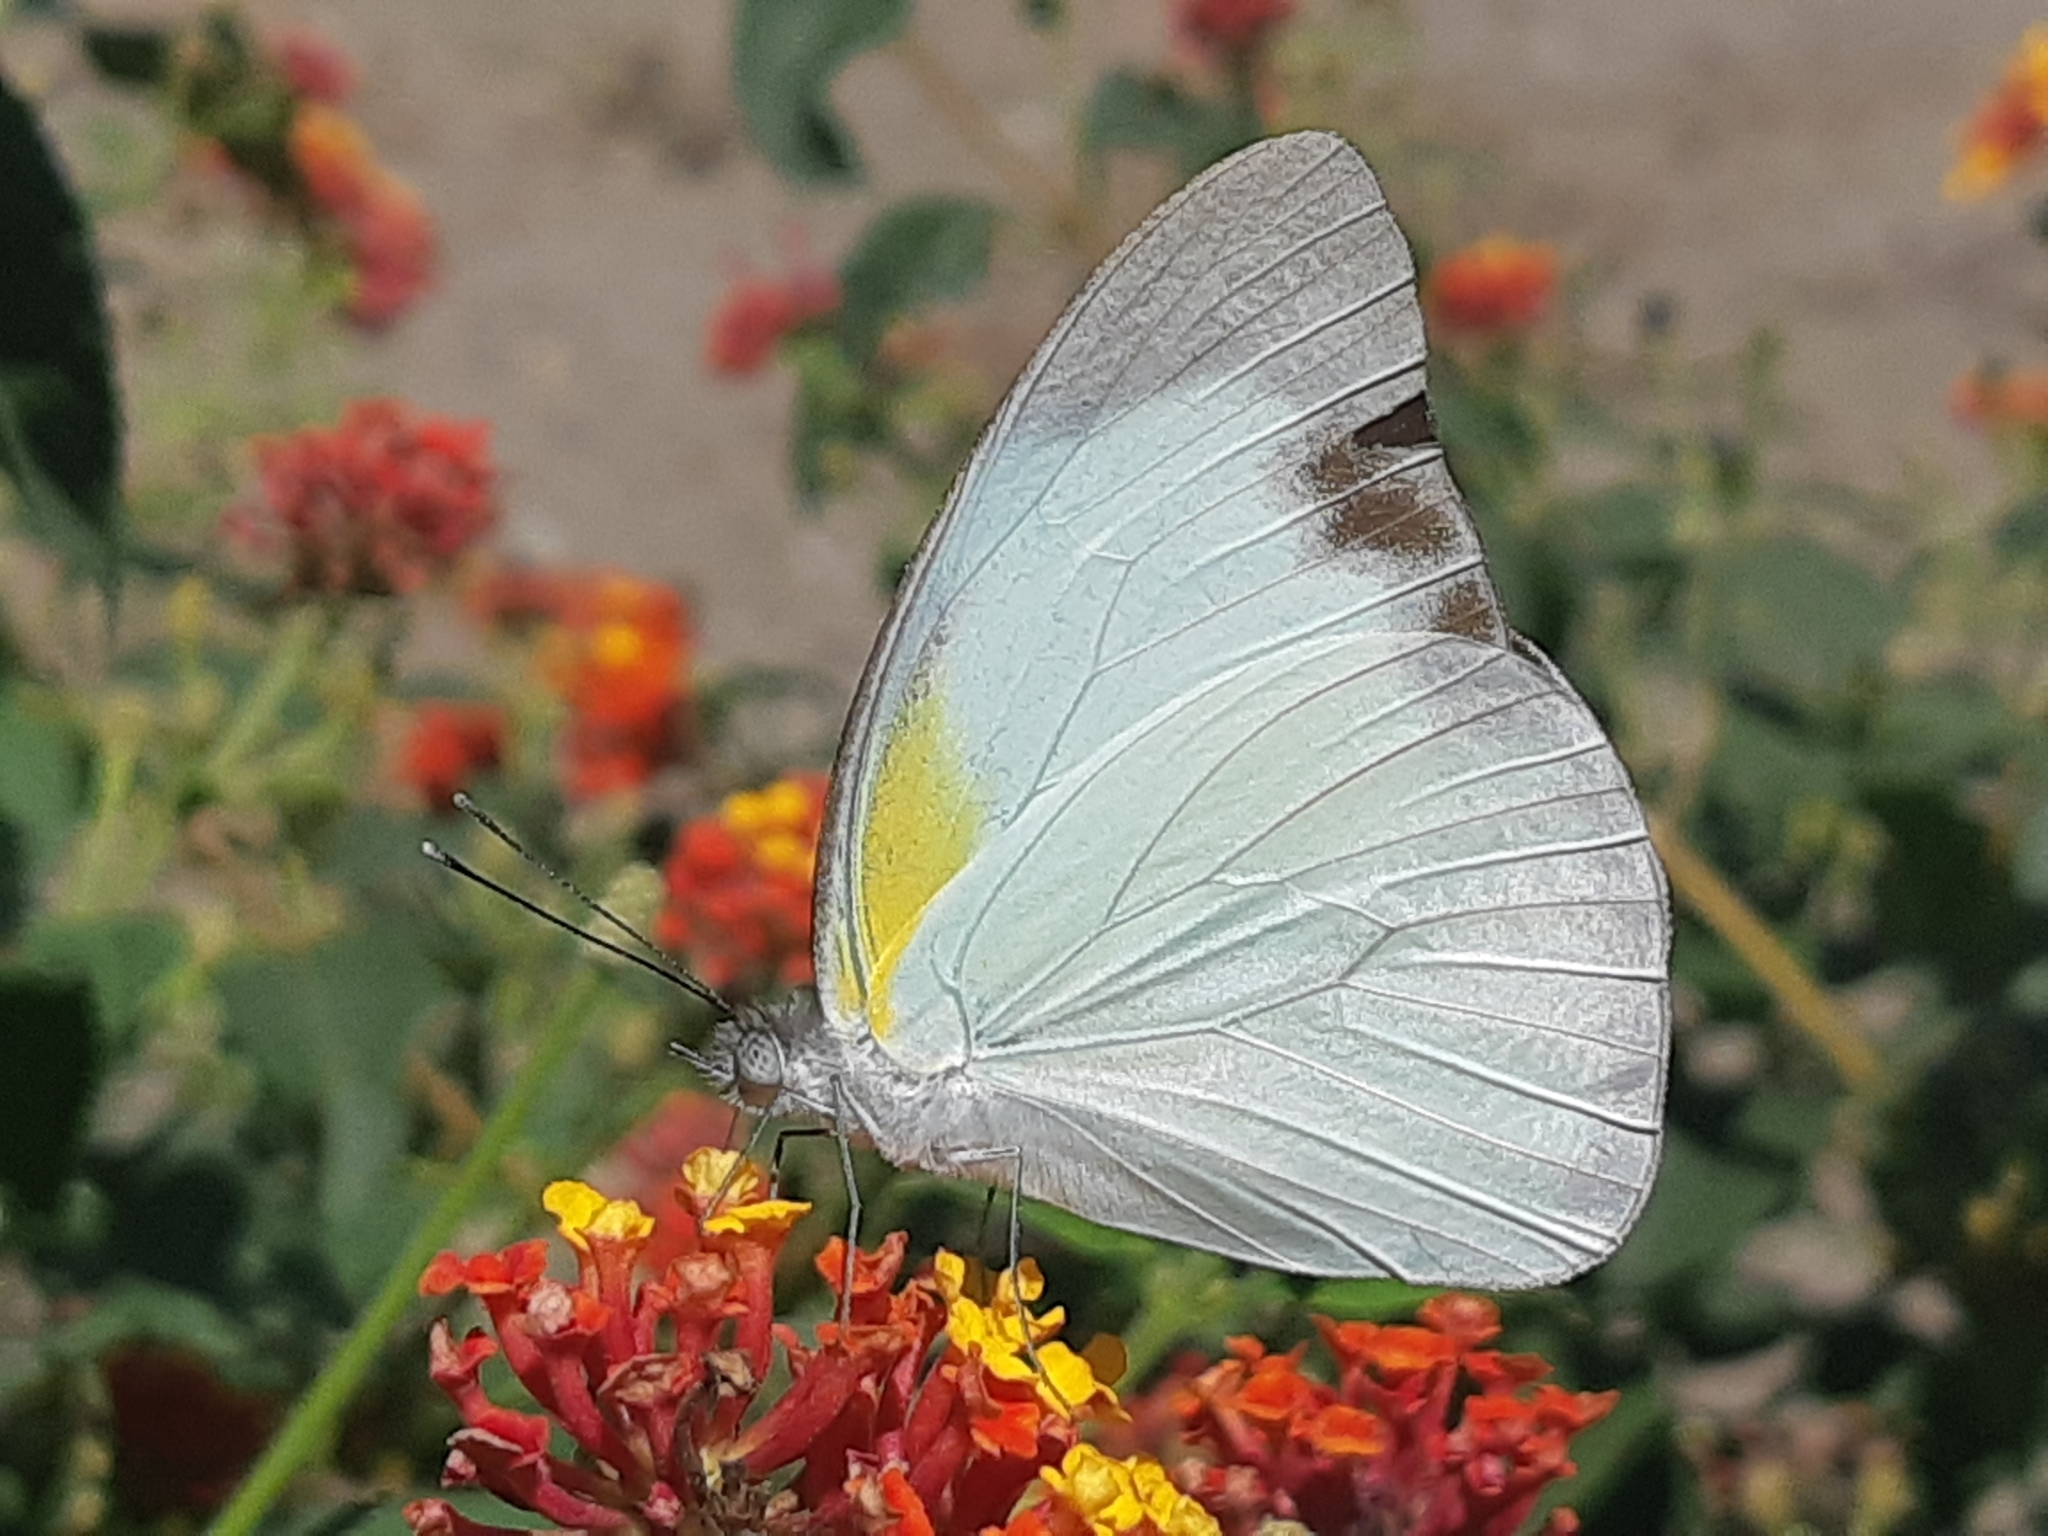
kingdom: Animalia
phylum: Arthropoda
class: Insecta
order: Lepidoptera
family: Pieridae
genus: Glutophrissa
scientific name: Glutophrissa drusilla
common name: Florida white
